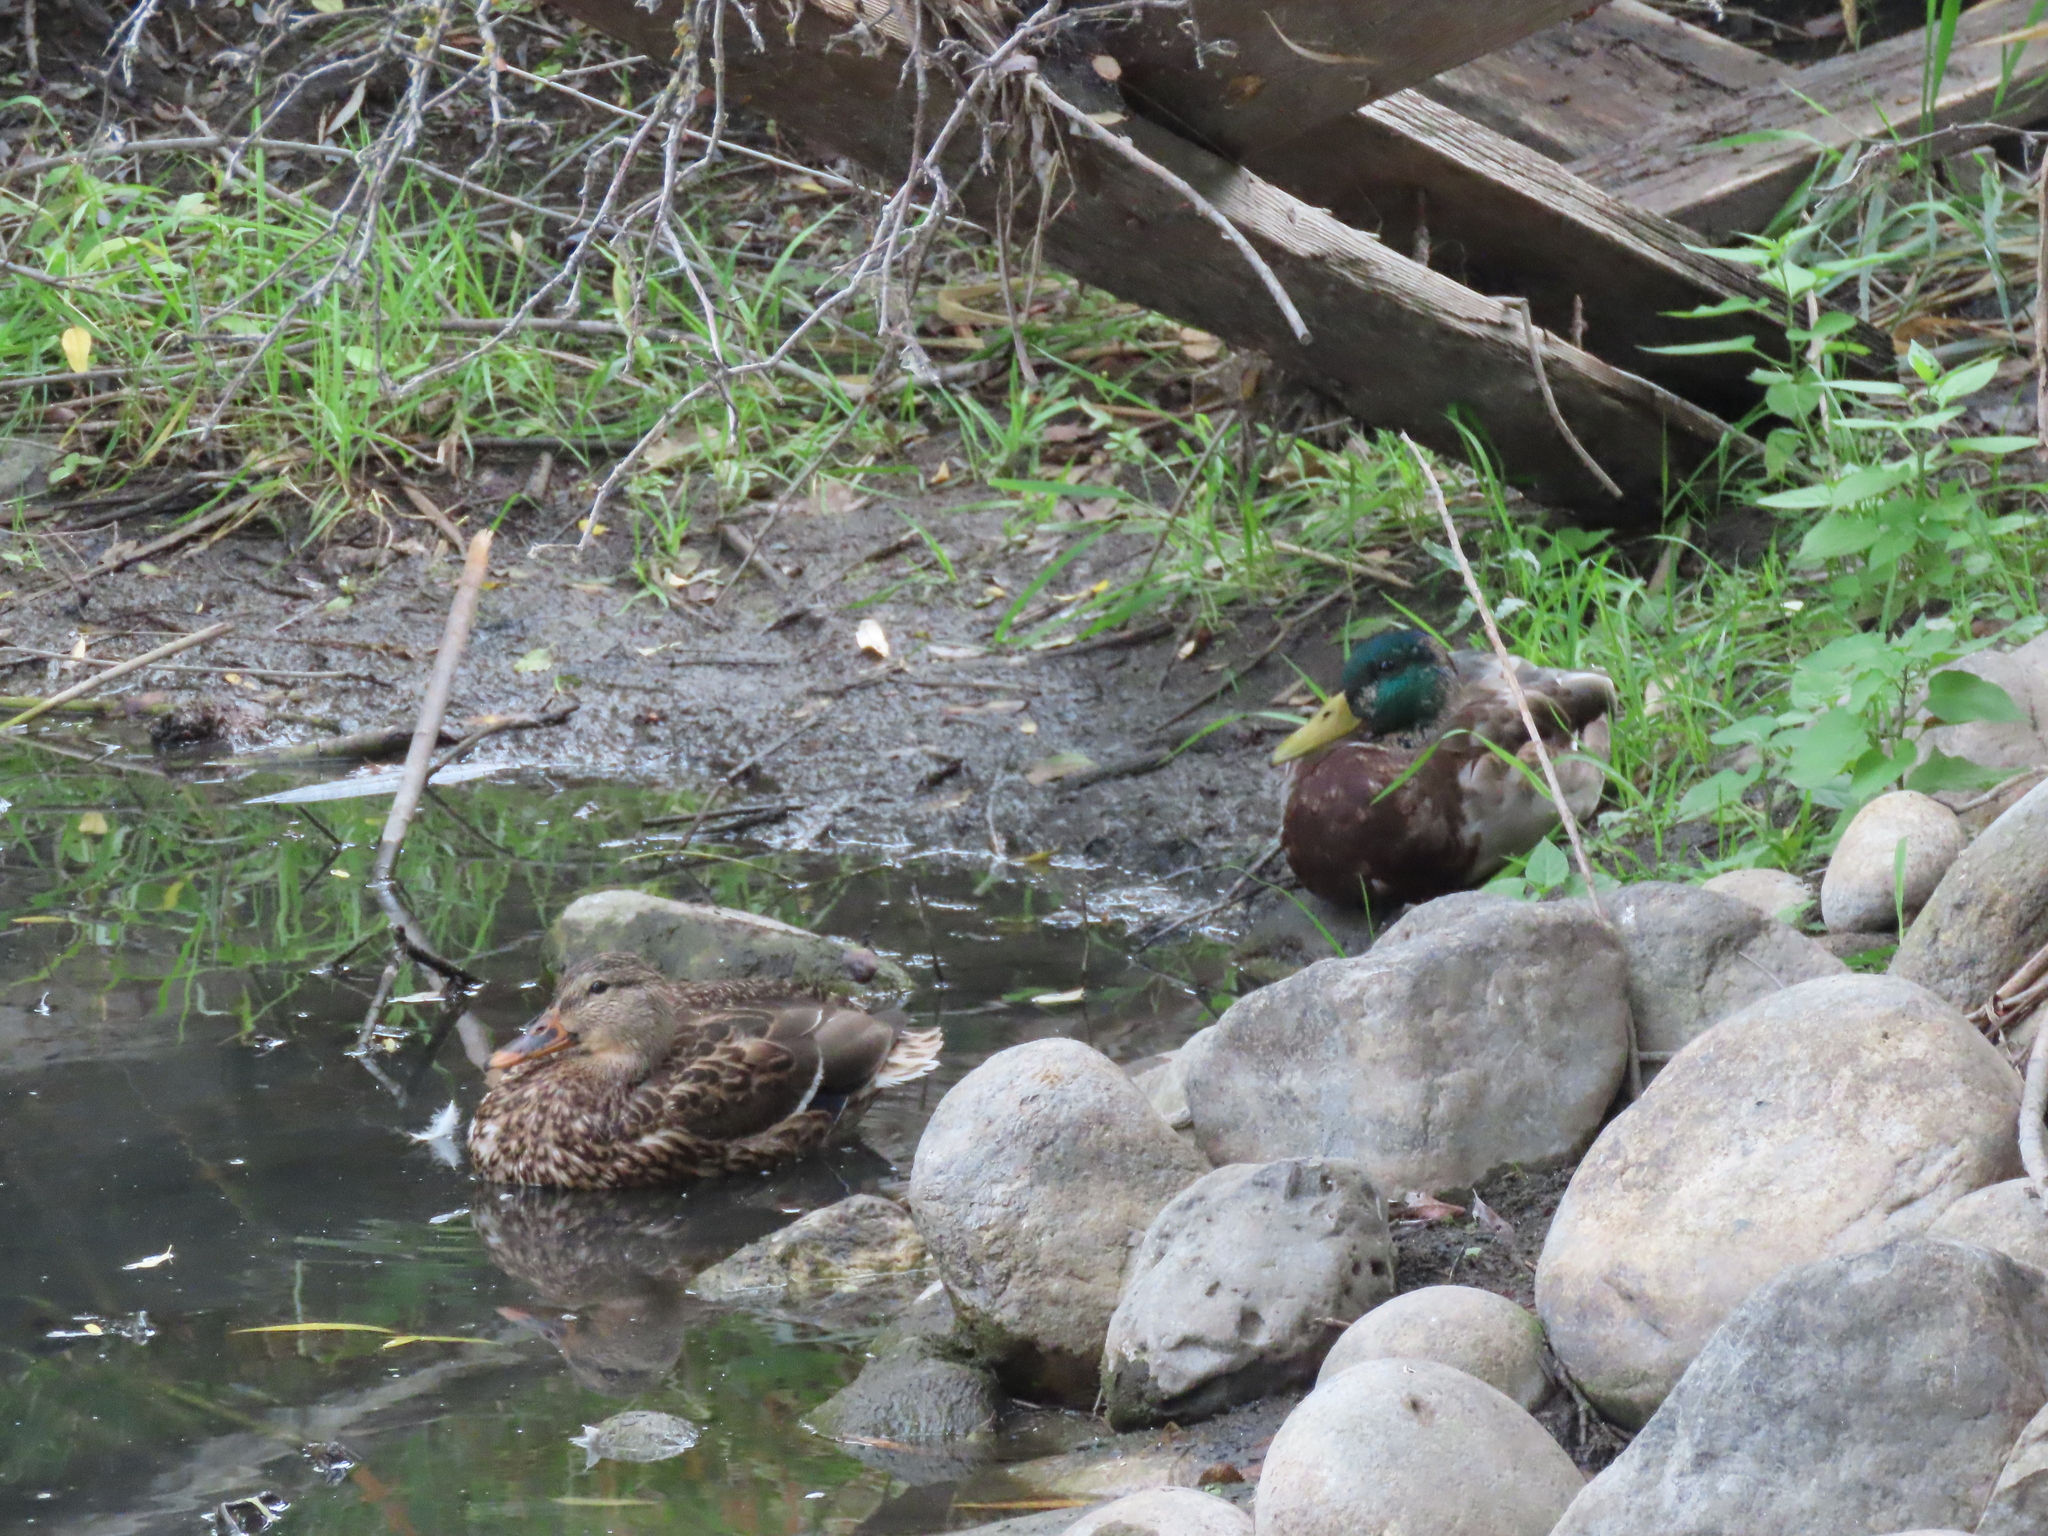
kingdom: Animalia
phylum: Chordata
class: Aves
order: Anseriformes
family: Anatidae
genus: Anas
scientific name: Anas platyrhynchos
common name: Mallard
